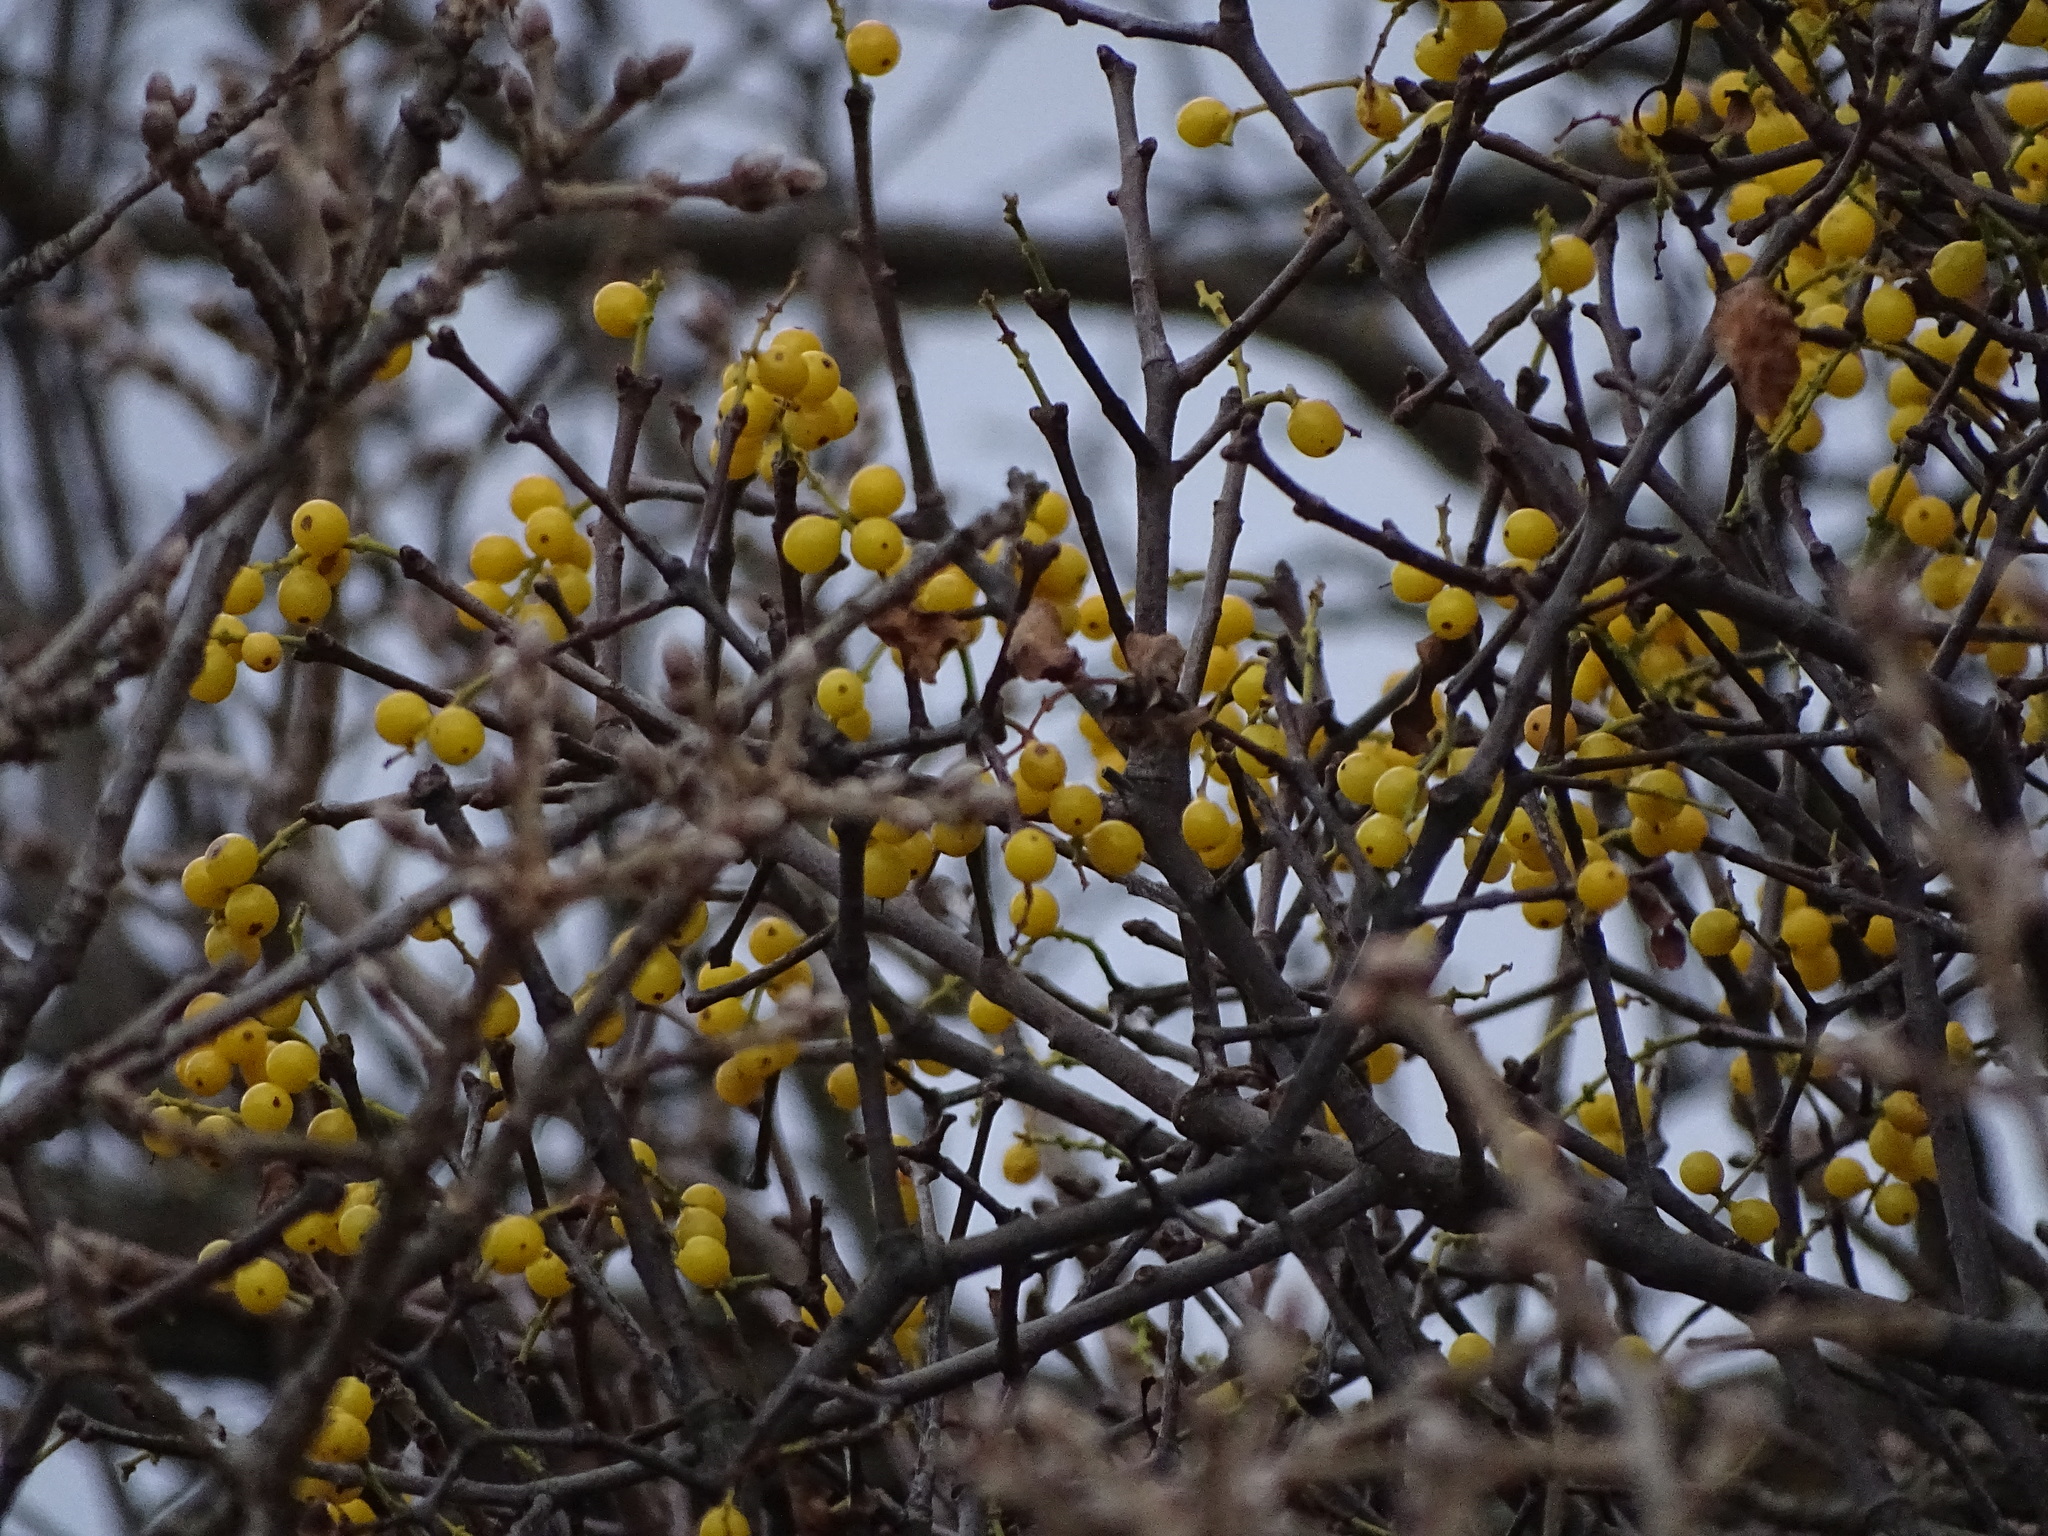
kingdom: Plantae
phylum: Tracheophyta
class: Magnoliopsida
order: Santalales
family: Loranthaceae
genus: Loranthus
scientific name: Loranthus europaeus
